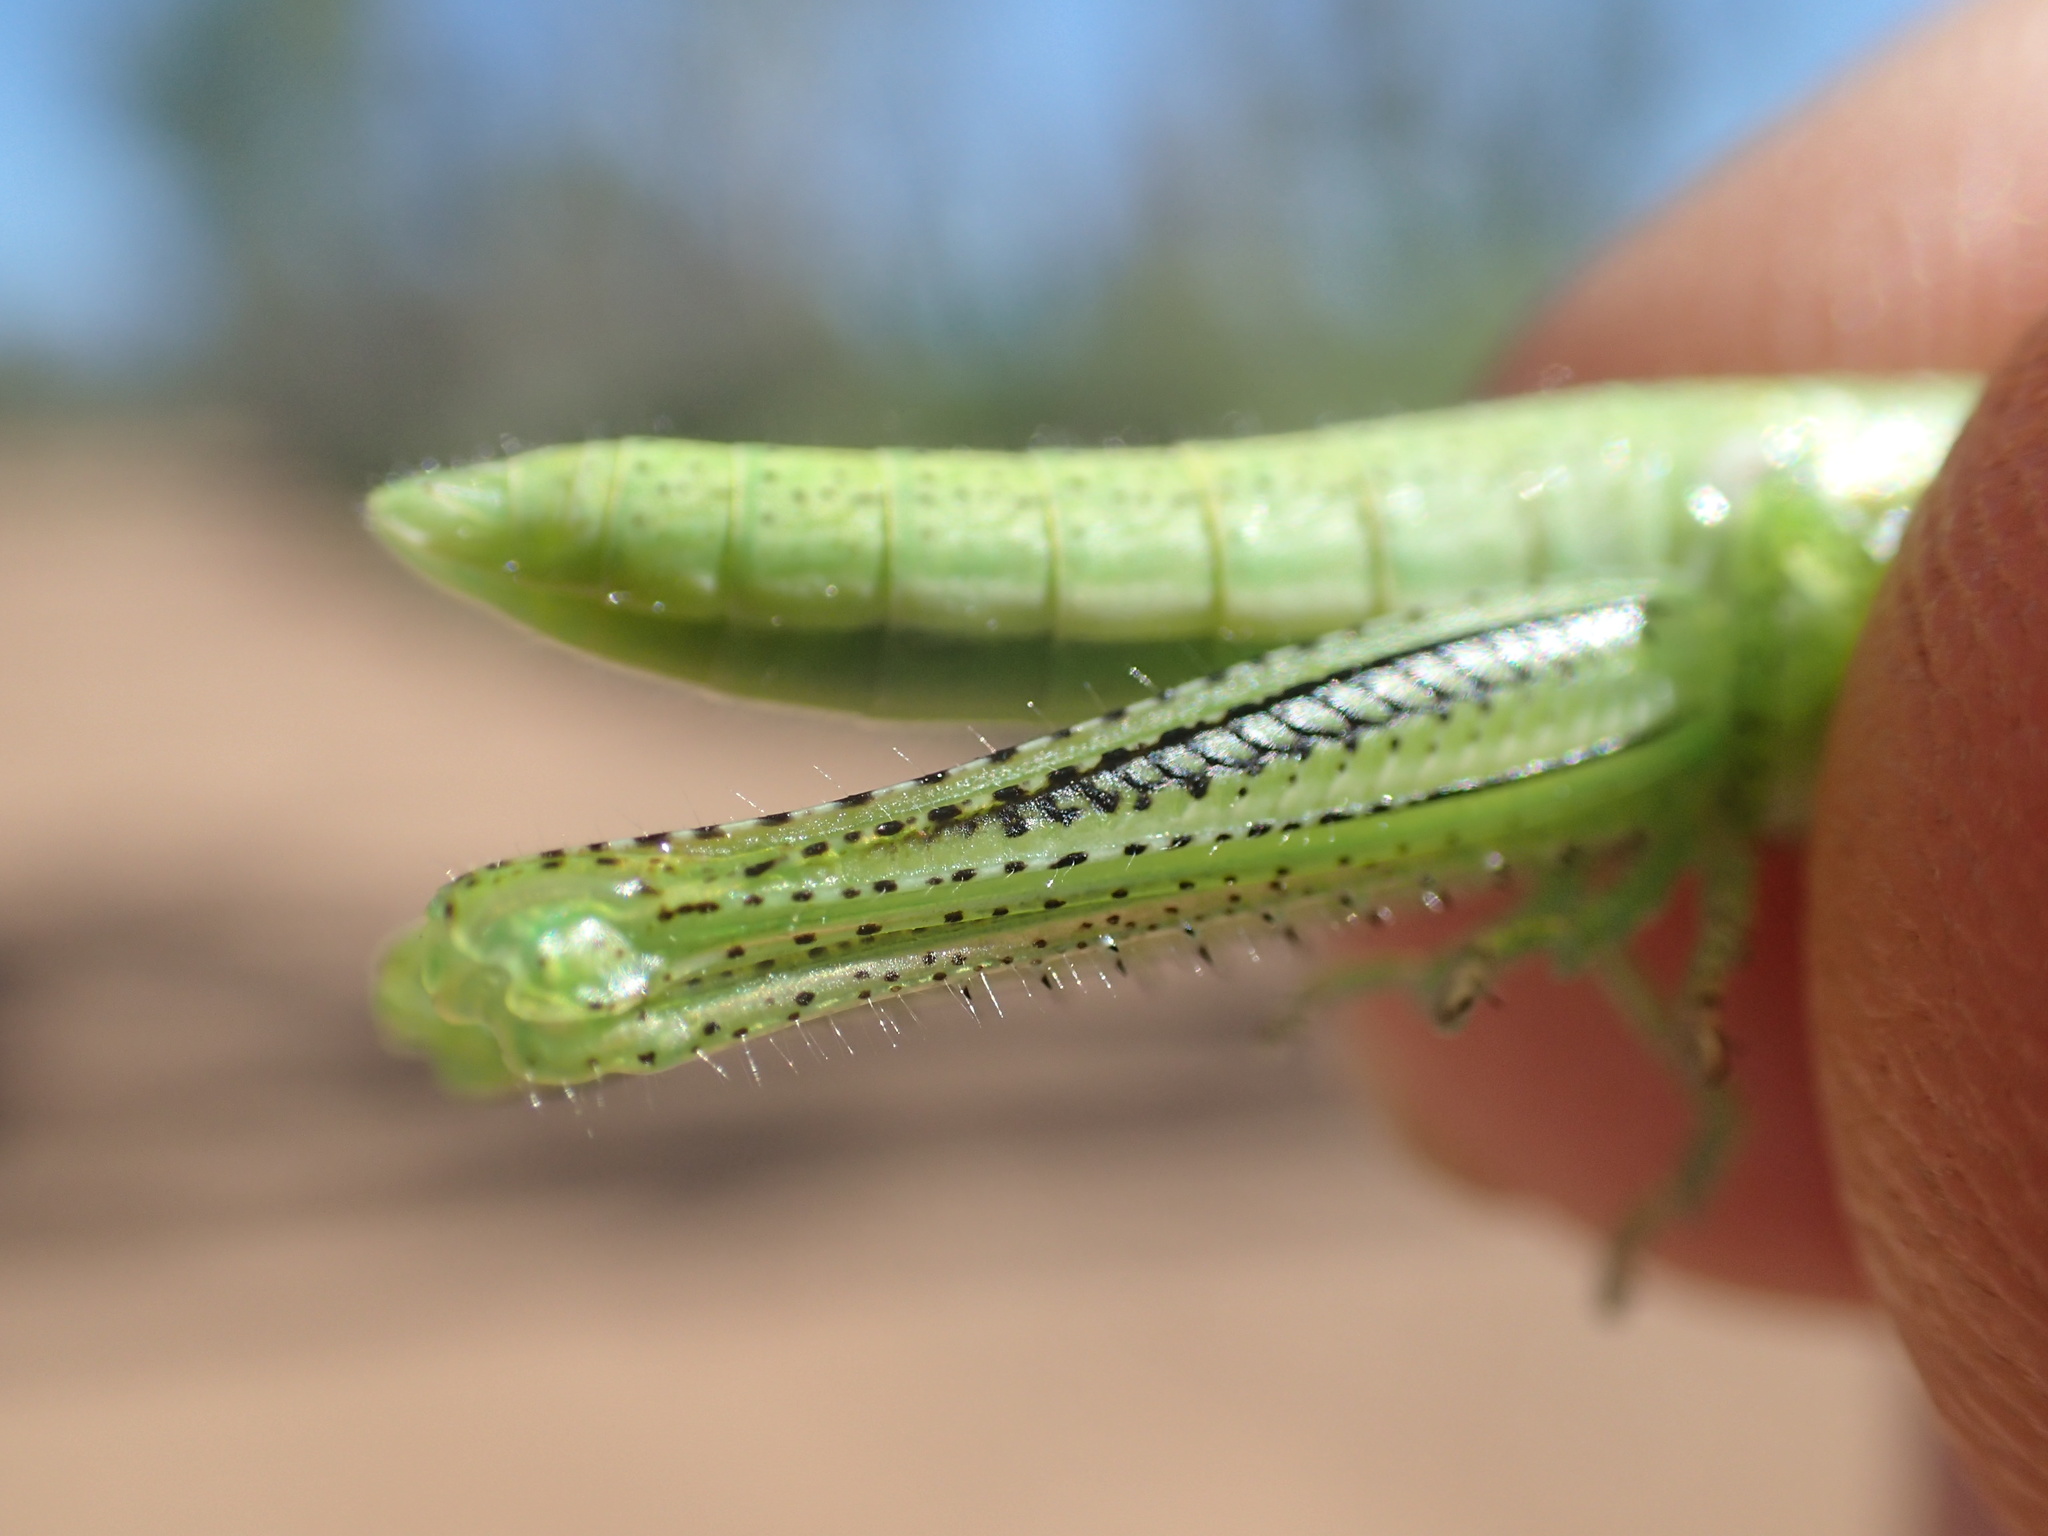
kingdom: Animalia
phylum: Arthropoda
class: Insecta
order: Orthoptera
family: Acrididae
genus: Austracris
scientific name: Austracris guttulosa
